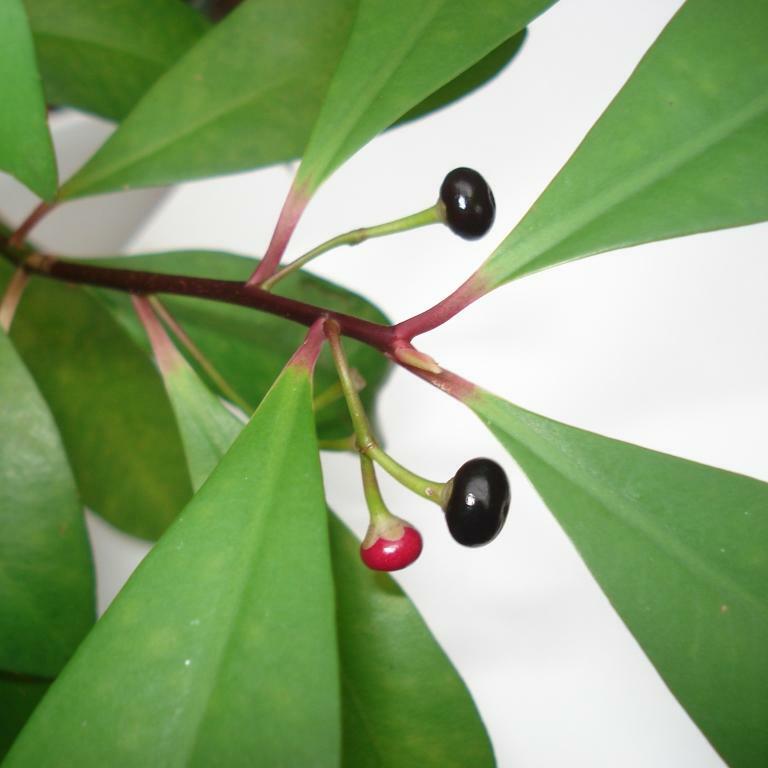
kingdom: Plantae
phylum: Tracheophyta
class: Magnoliopsida
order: Ericales
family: Primulaceae
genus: Ardisia
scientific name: Ardisia elliptica
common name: Shoebutton
